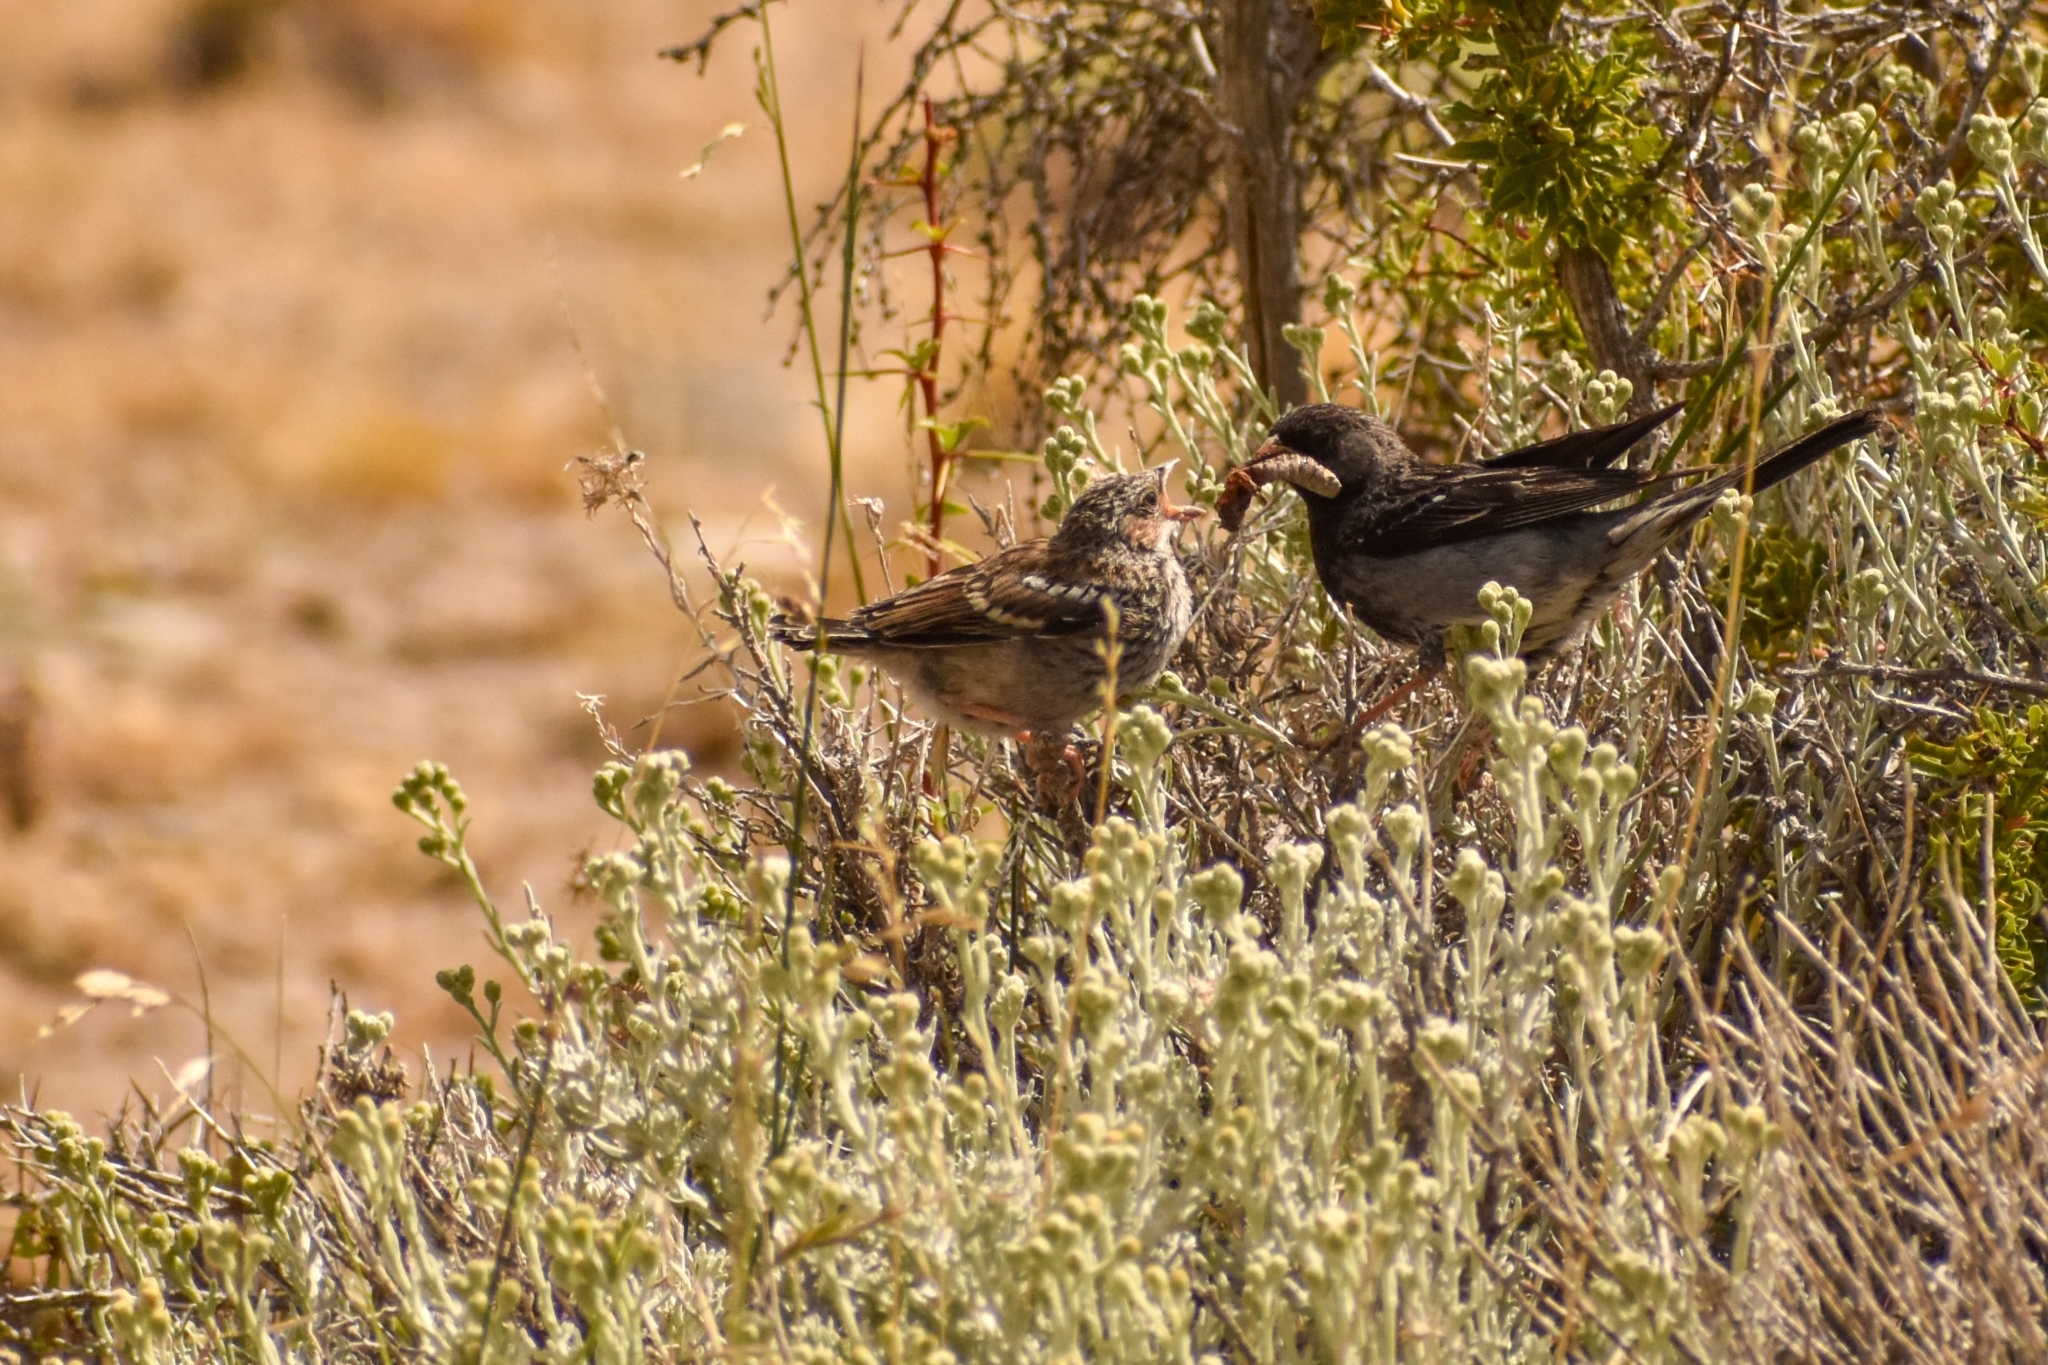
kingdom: Animalia
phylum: Chordata
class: Aves
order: Passeriformes
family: Thraupidae
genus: Rhopospina
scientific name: Rhopospina fruticeti
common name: Mourning sierra finch
